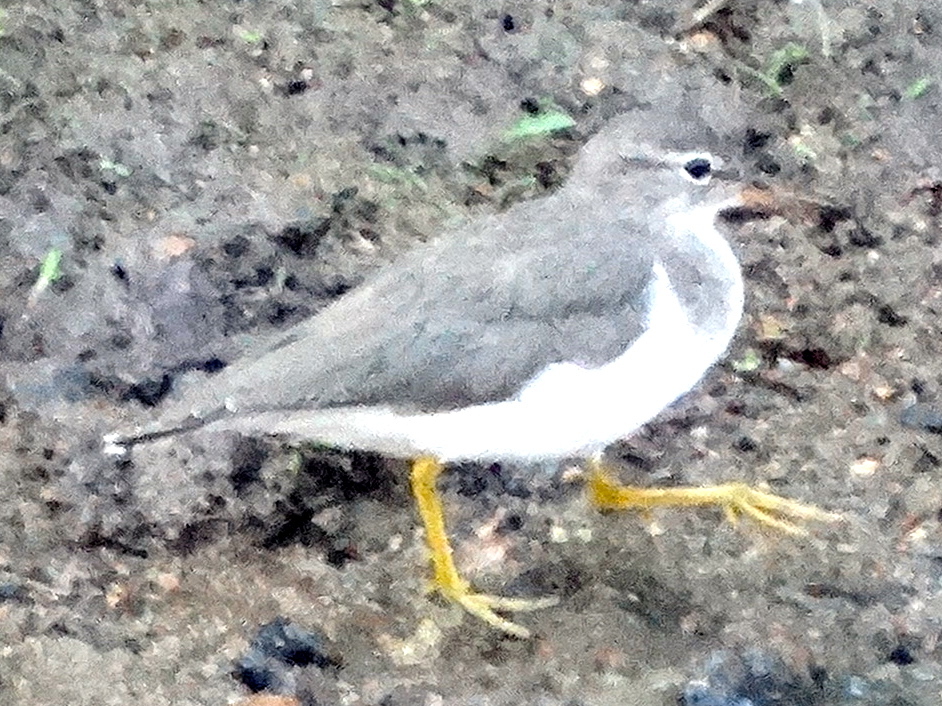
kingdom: Animalia
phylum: Chordata
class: Aves
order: Charadriiformes
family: Scolopacidae
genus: Actitis
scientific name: Actitis macularius
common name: Spotted sandpiper
